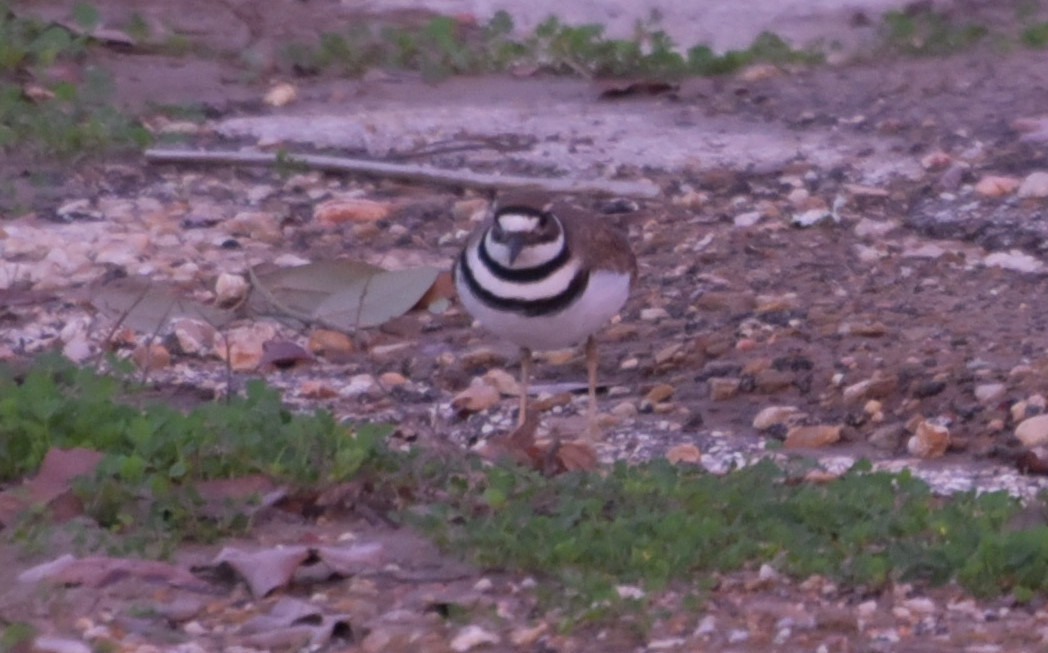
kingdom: Animalia
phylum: Chordata
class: Aves
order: Charadriiformes
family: Charadriidae
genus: Charadrius
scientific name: Charadrius vociferus
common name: Killdeer
